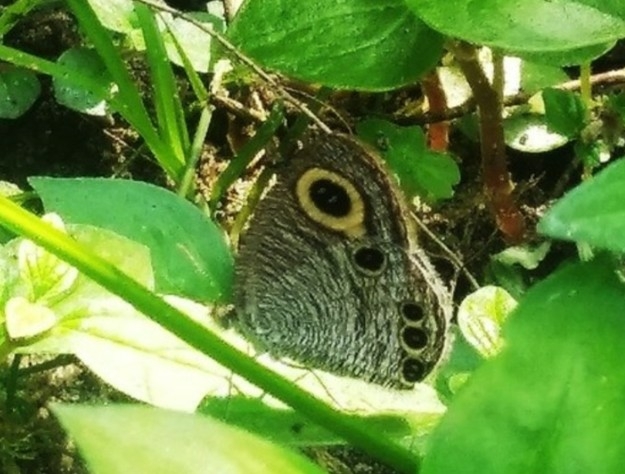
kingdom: Animalia
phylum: Arthropoda
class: Insecta
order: Lepidoptera
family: Nymphalidae
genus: Ypthima
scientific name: Ypthima huebneri
